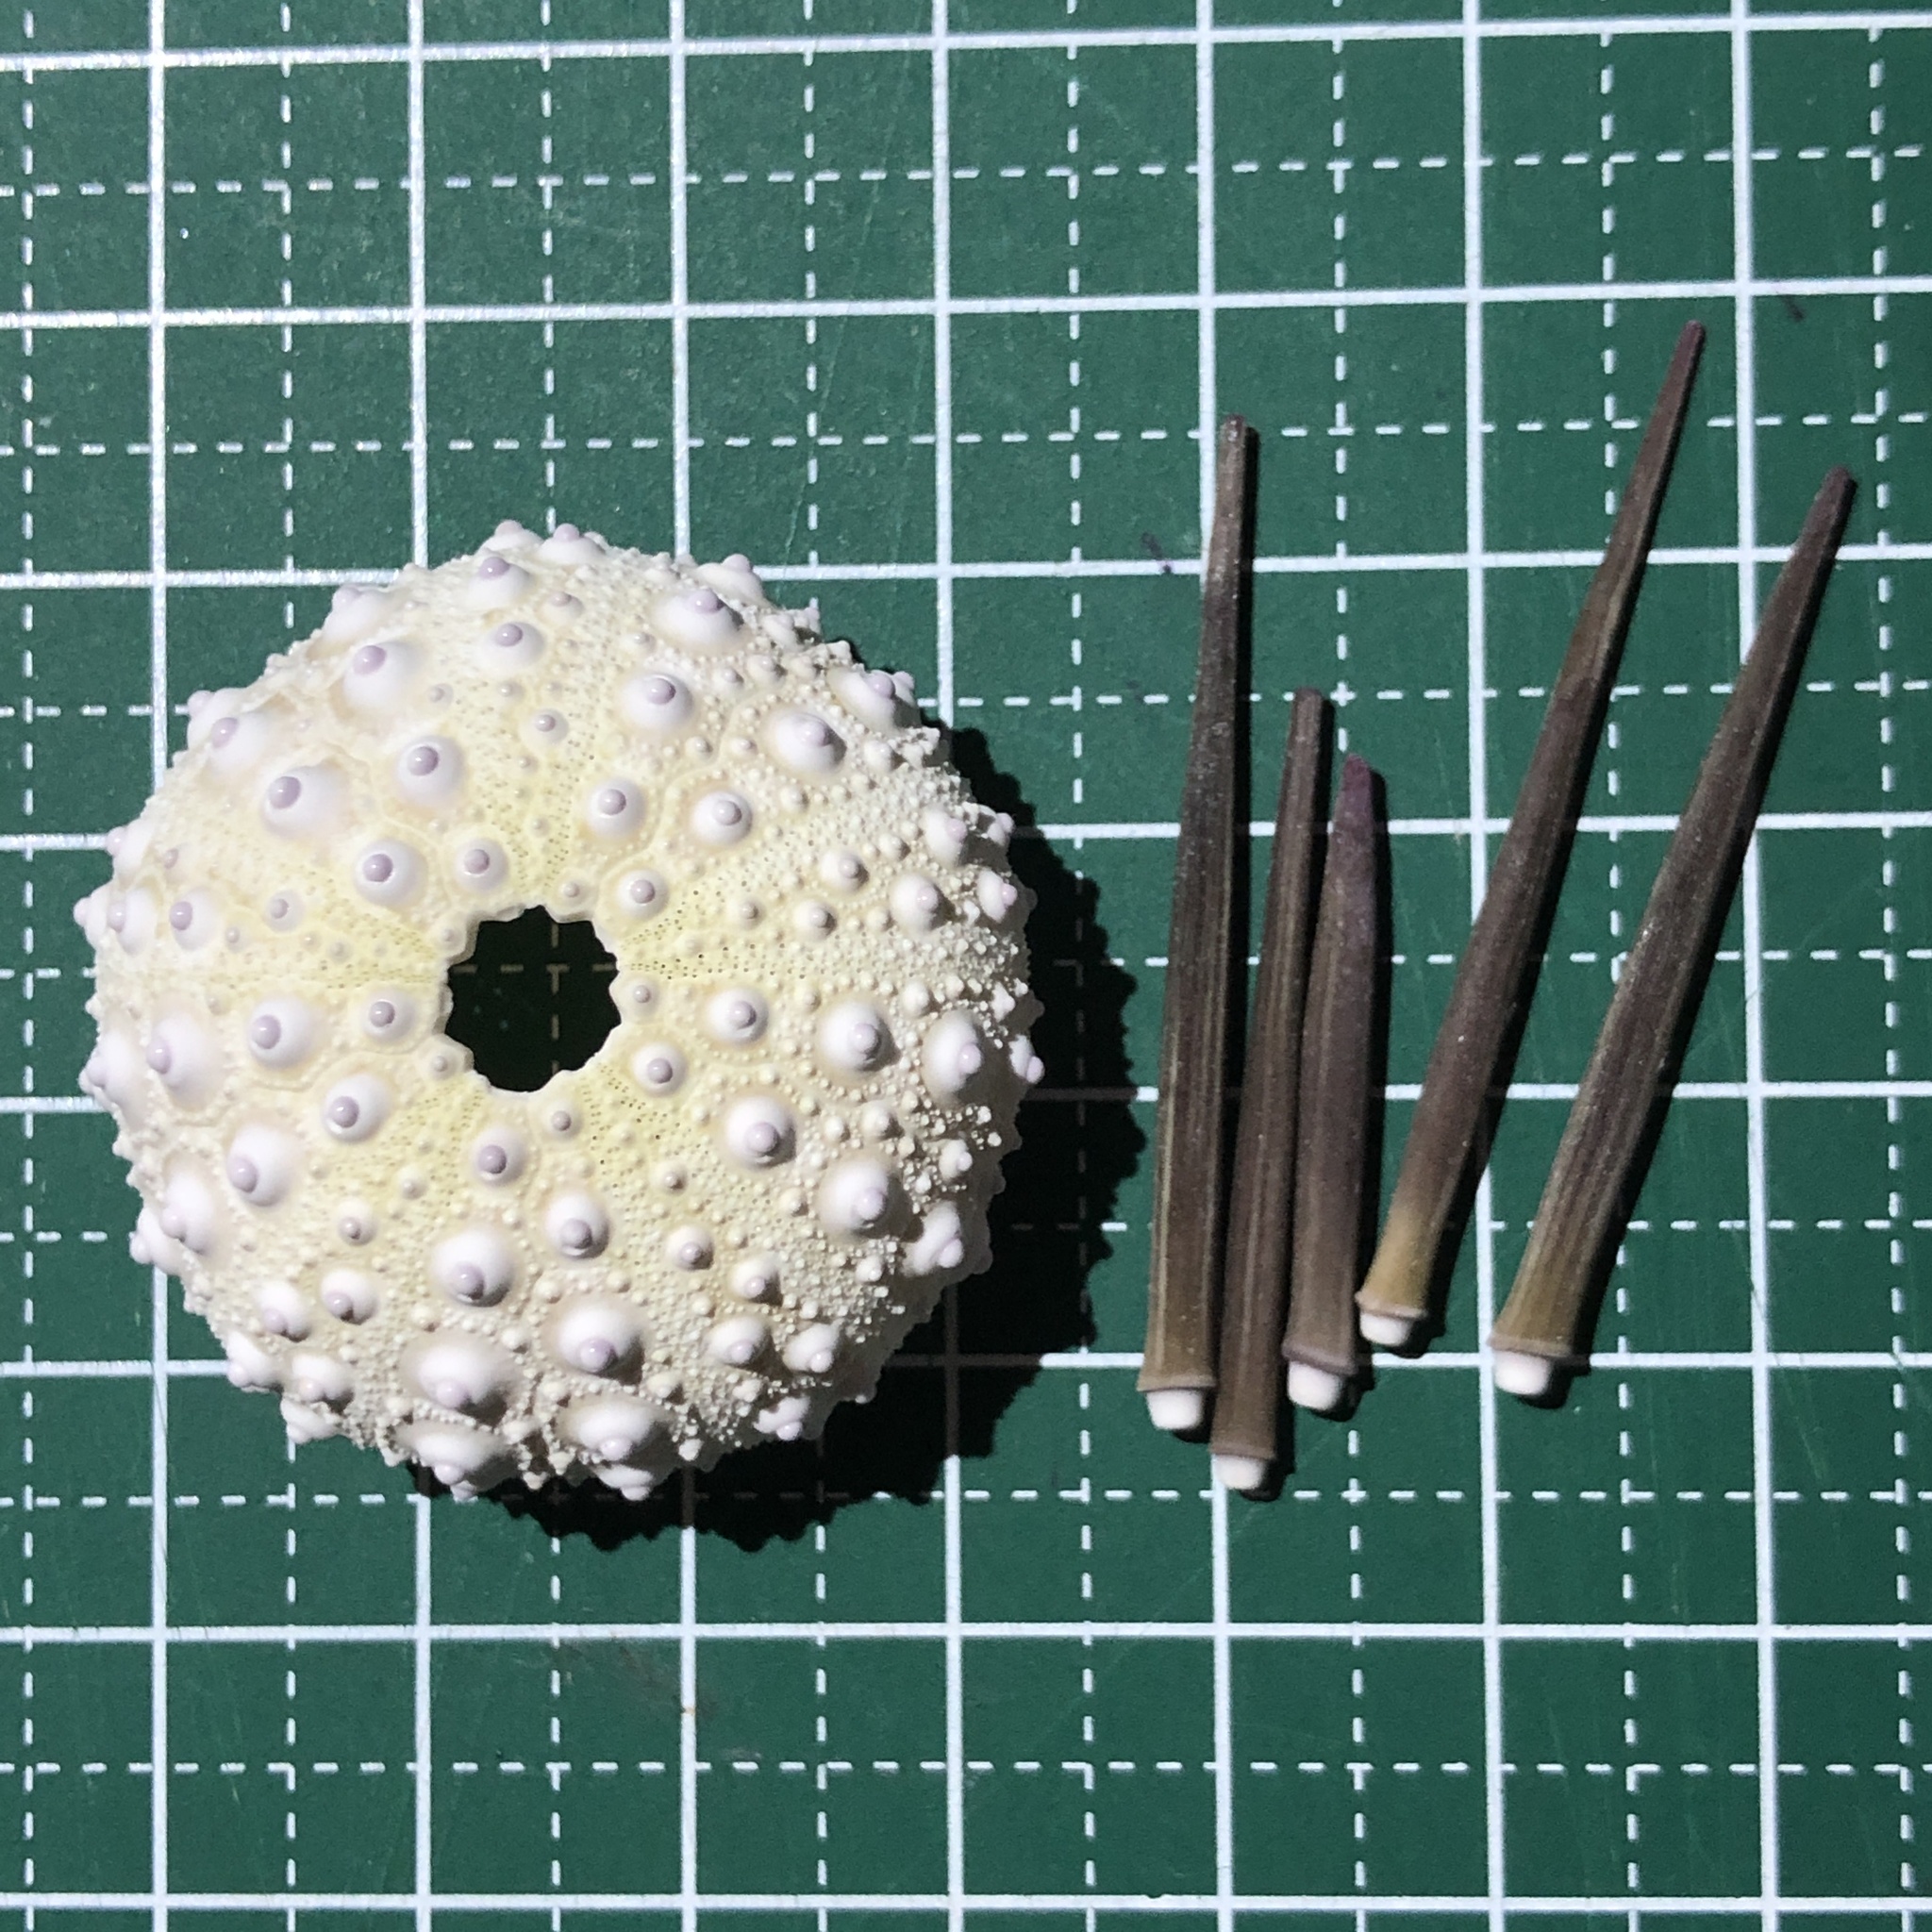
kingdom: Animalia
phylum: Echinodermata
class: Echinoidea
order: Stomopneustoida
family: Stomopneustidae
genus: Stomopneustes
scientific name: Stomopneustes variolaris
